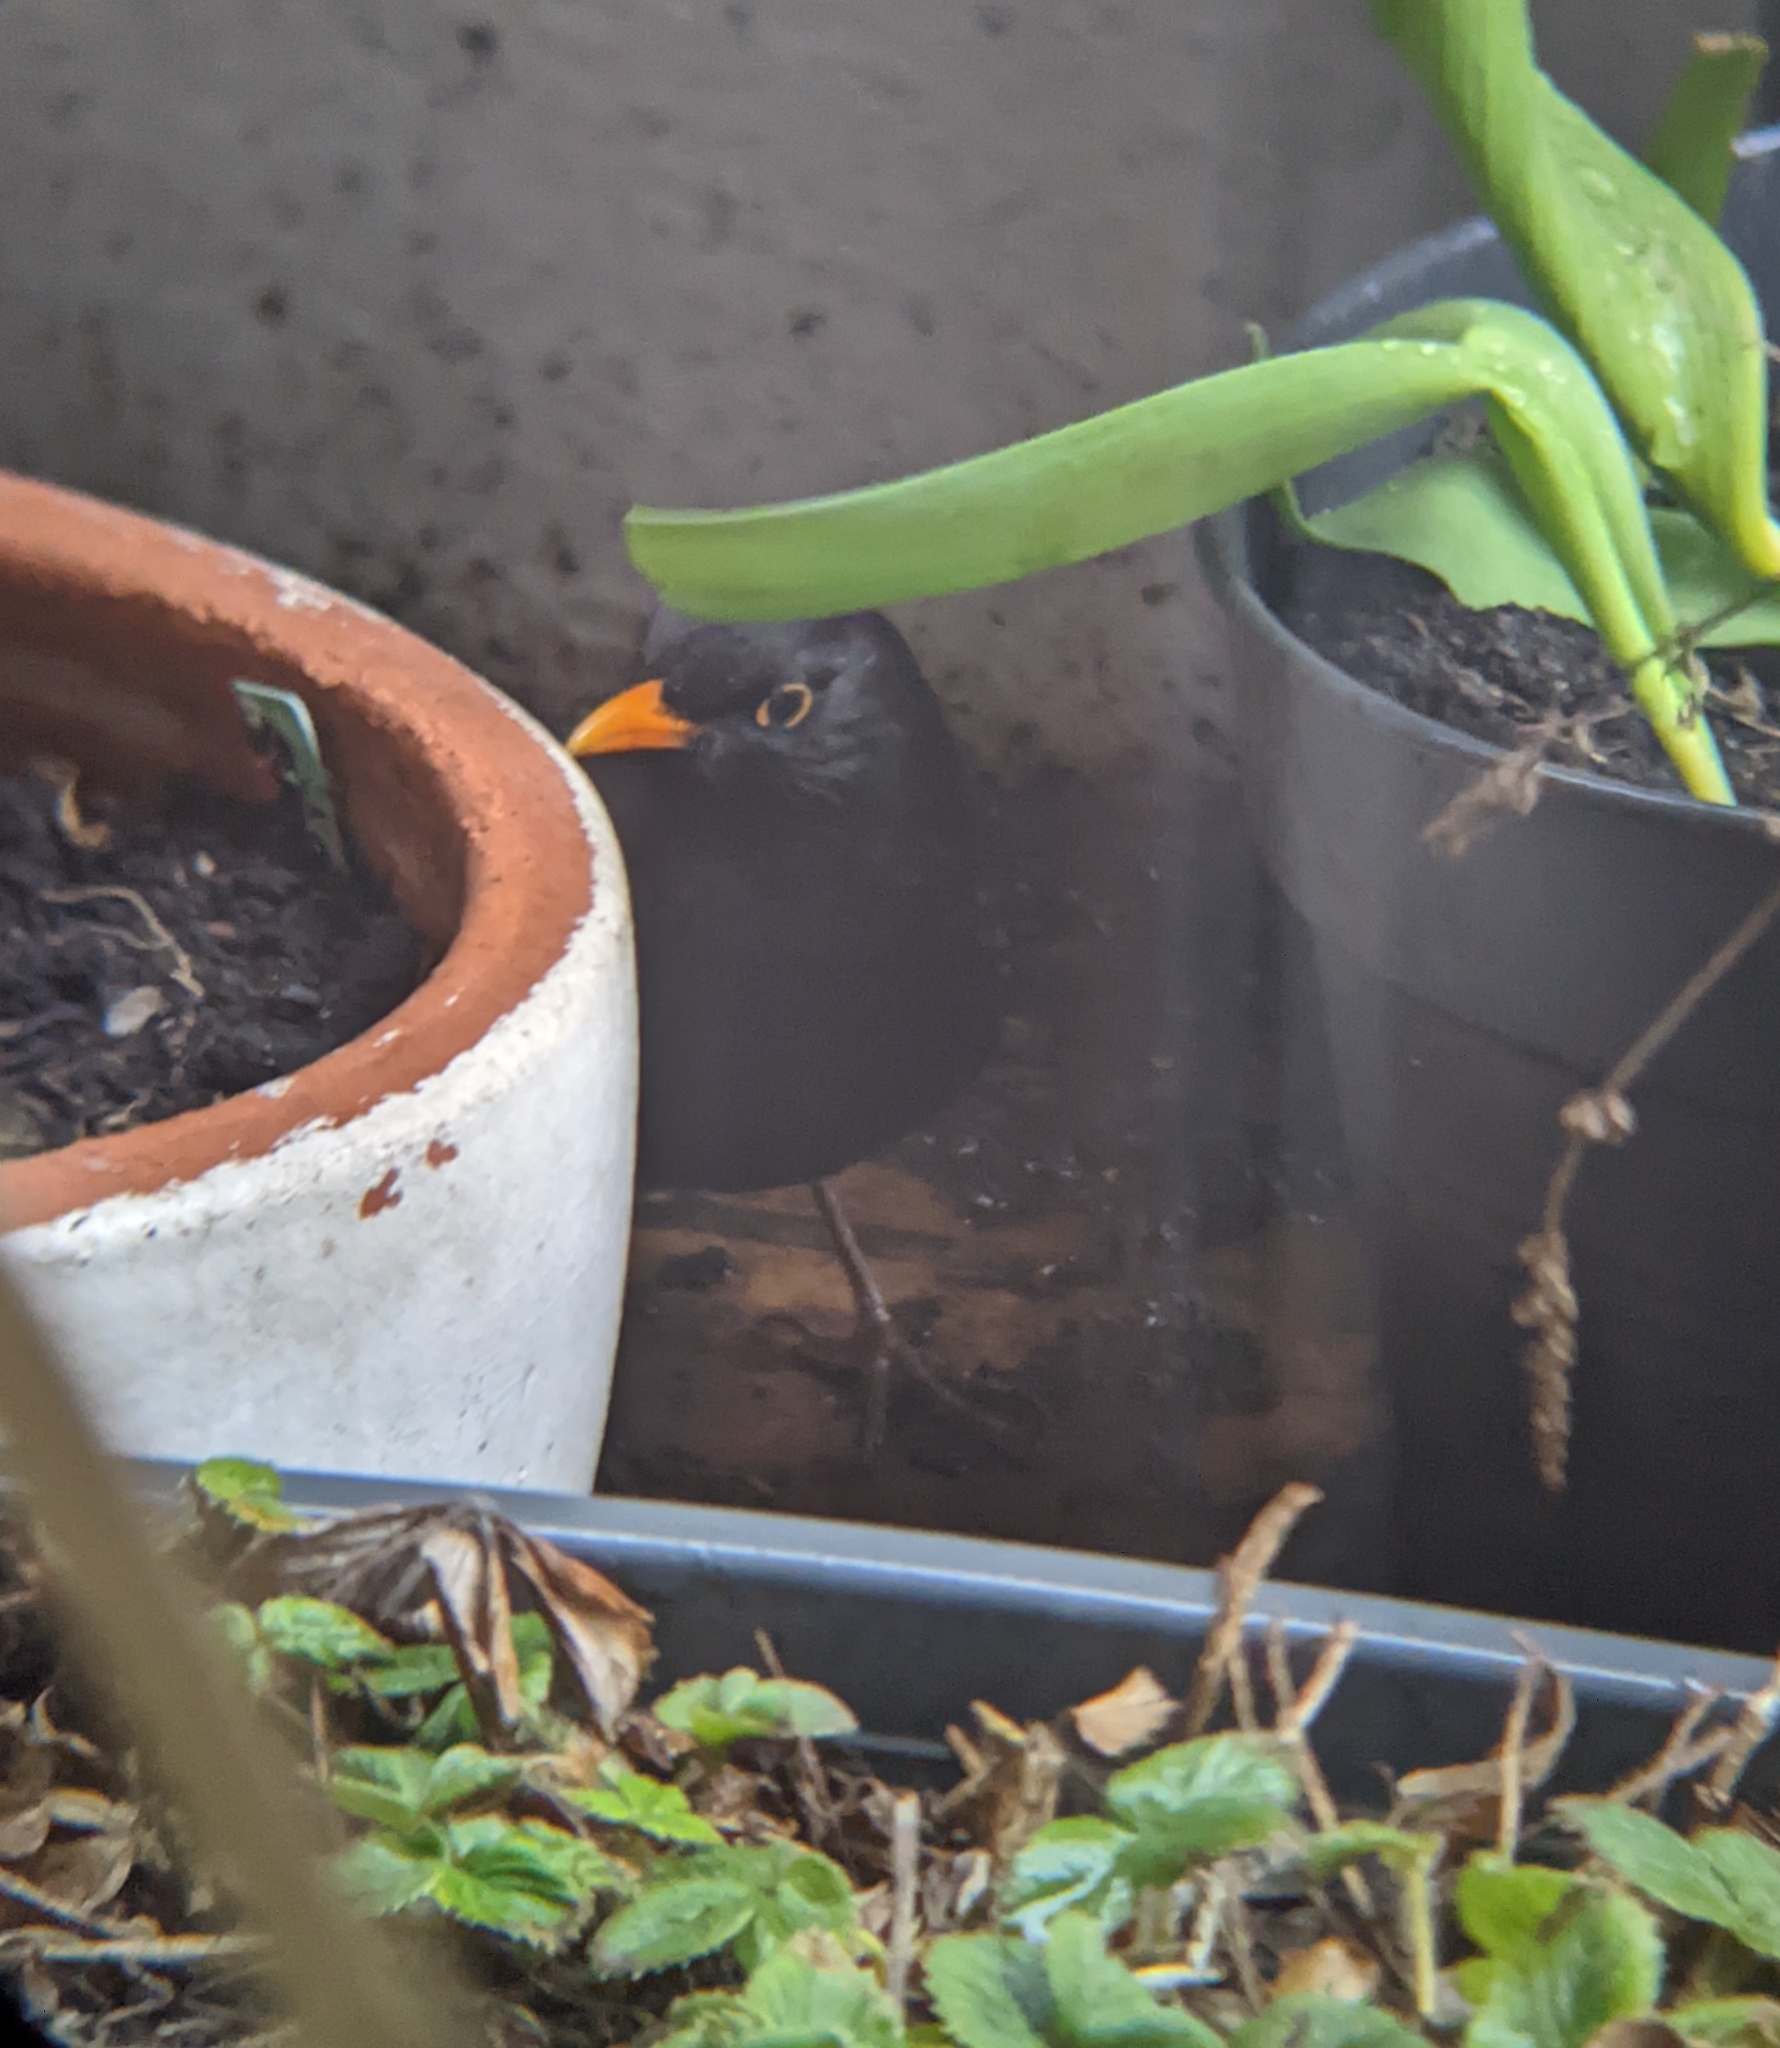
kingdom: Animalia
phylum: Chordata
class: Aves
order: Passeriformes
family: Turdidae
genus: Turdus
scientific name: Turdus merula
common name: Common blackbird
